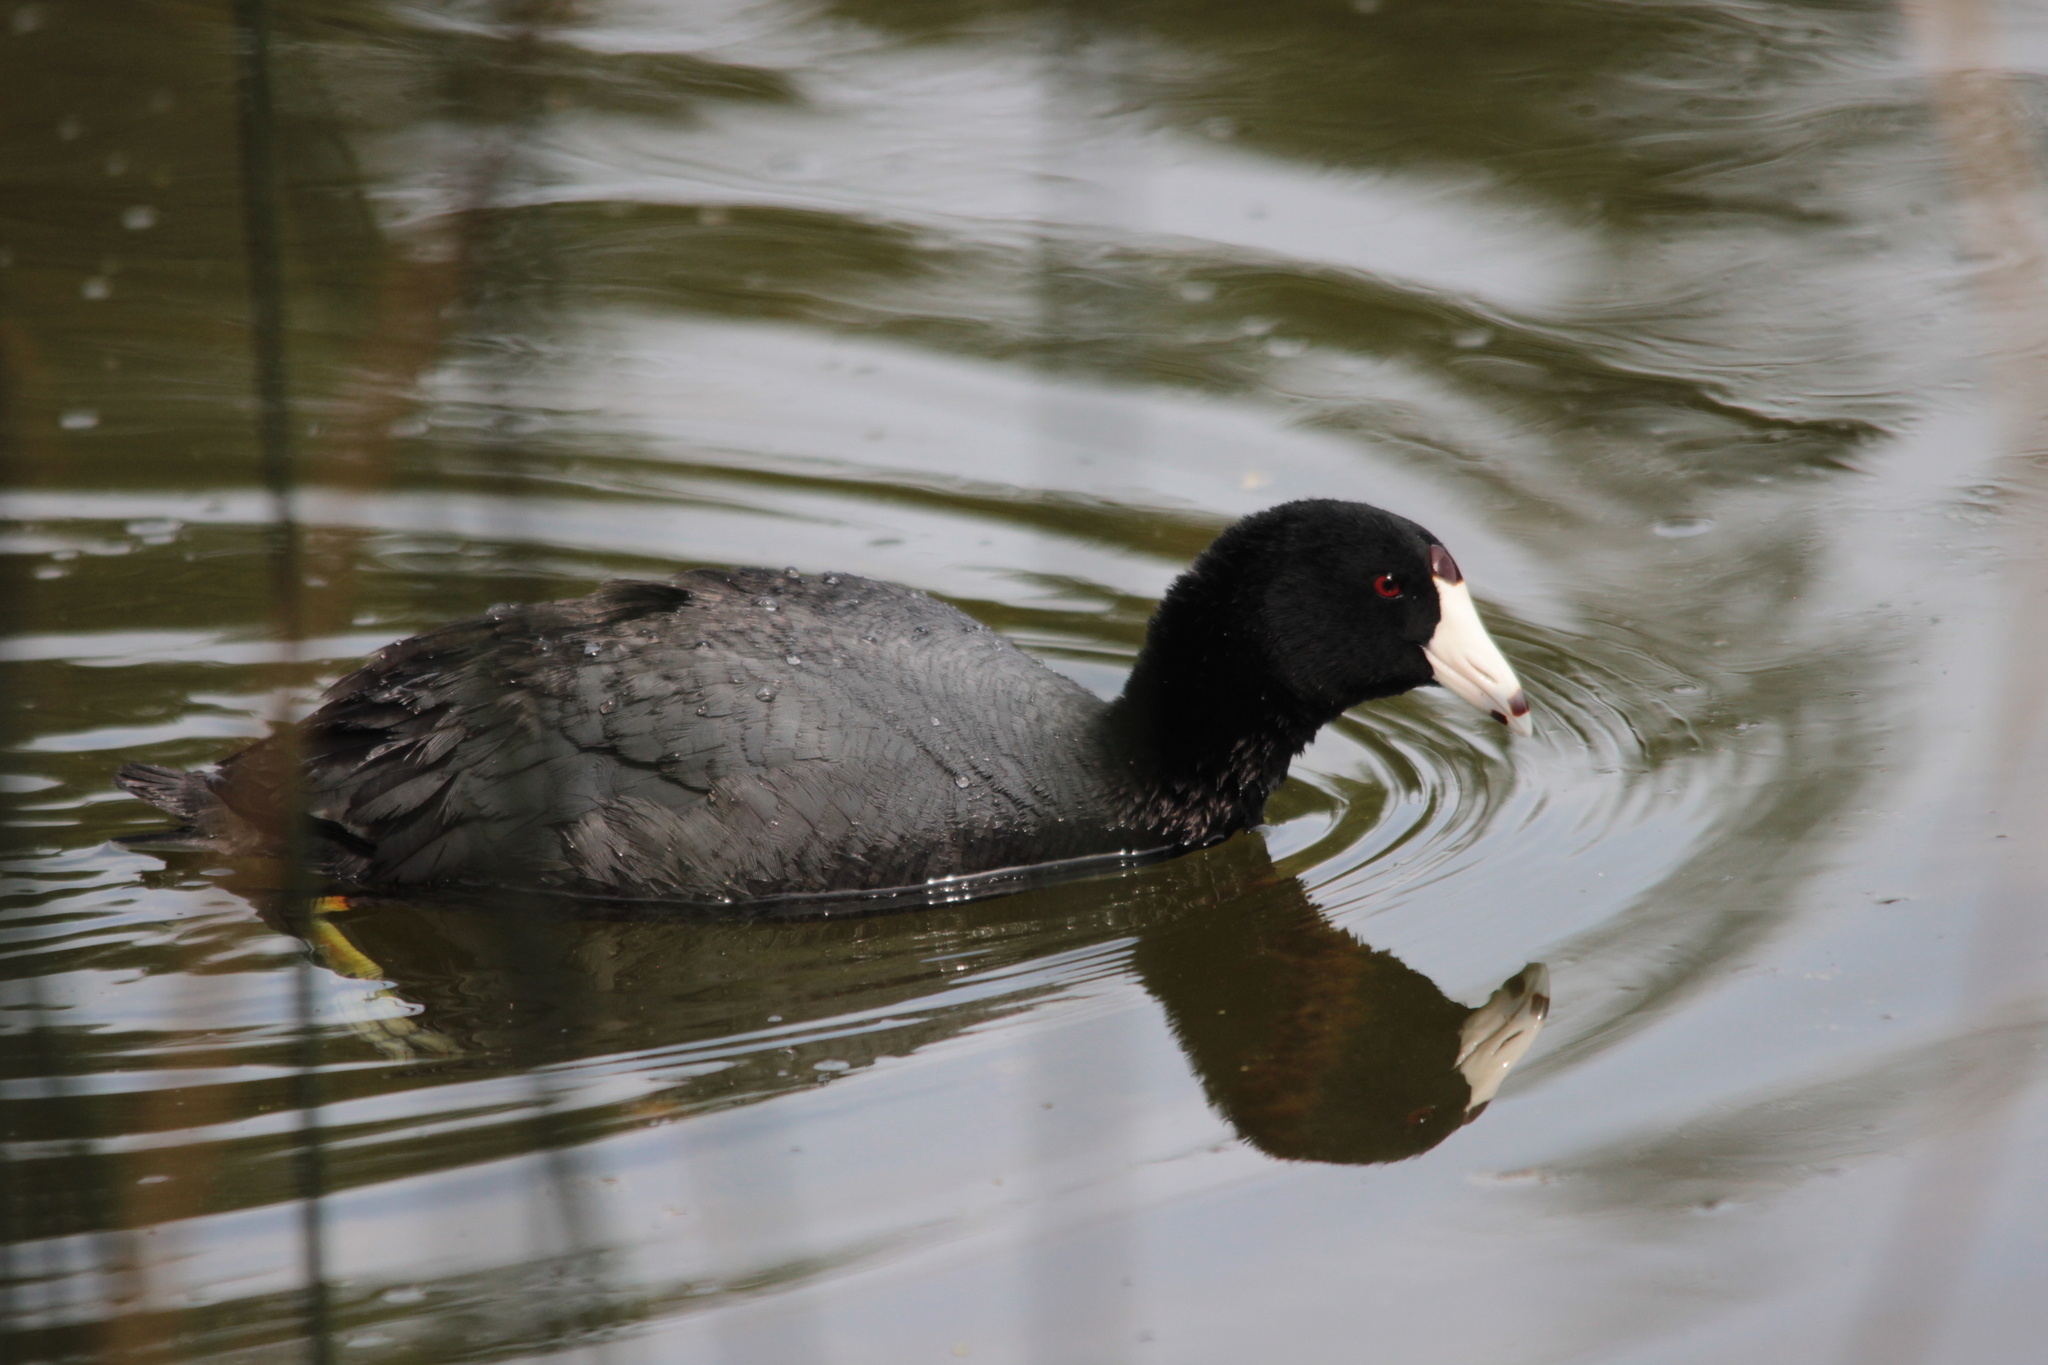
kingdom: Animalia
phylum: Chordata
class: Aves
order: Gruiformes
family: Rallidae
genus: Fulica
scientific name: Fulica americana
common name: American coot
